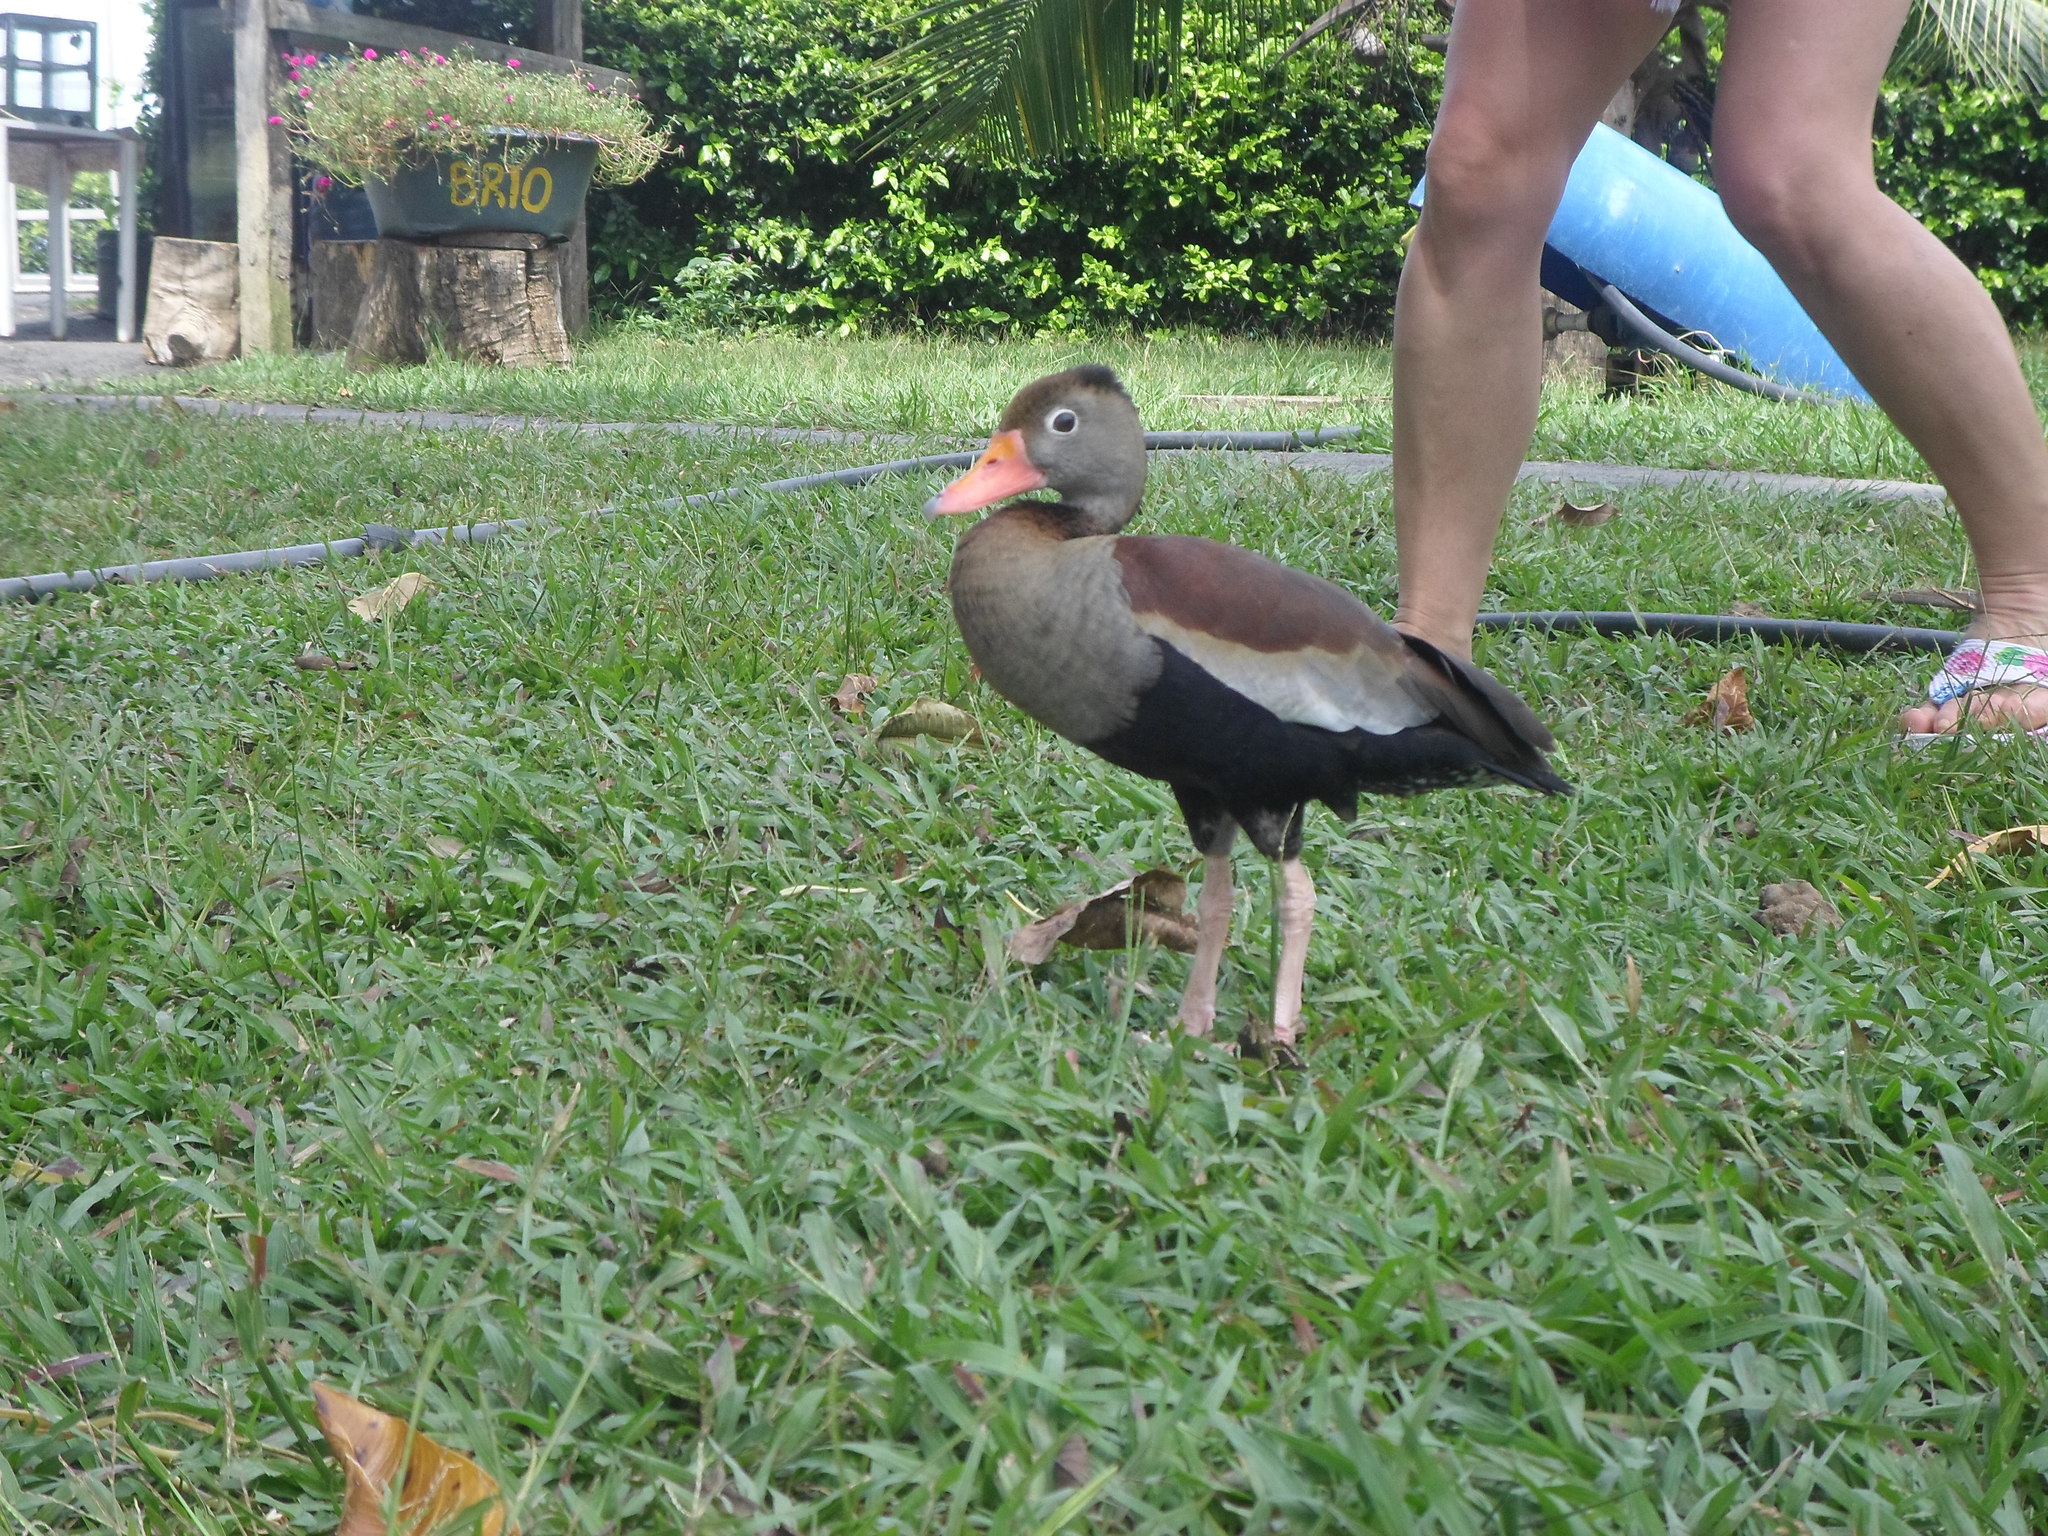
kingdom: Animalia
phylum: Chordata
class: Aves
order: Anseriformes
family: Anatidae
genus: Dendrocygna
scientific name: Dendrocygna autumnalis
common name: Black-bellied whistling duck
